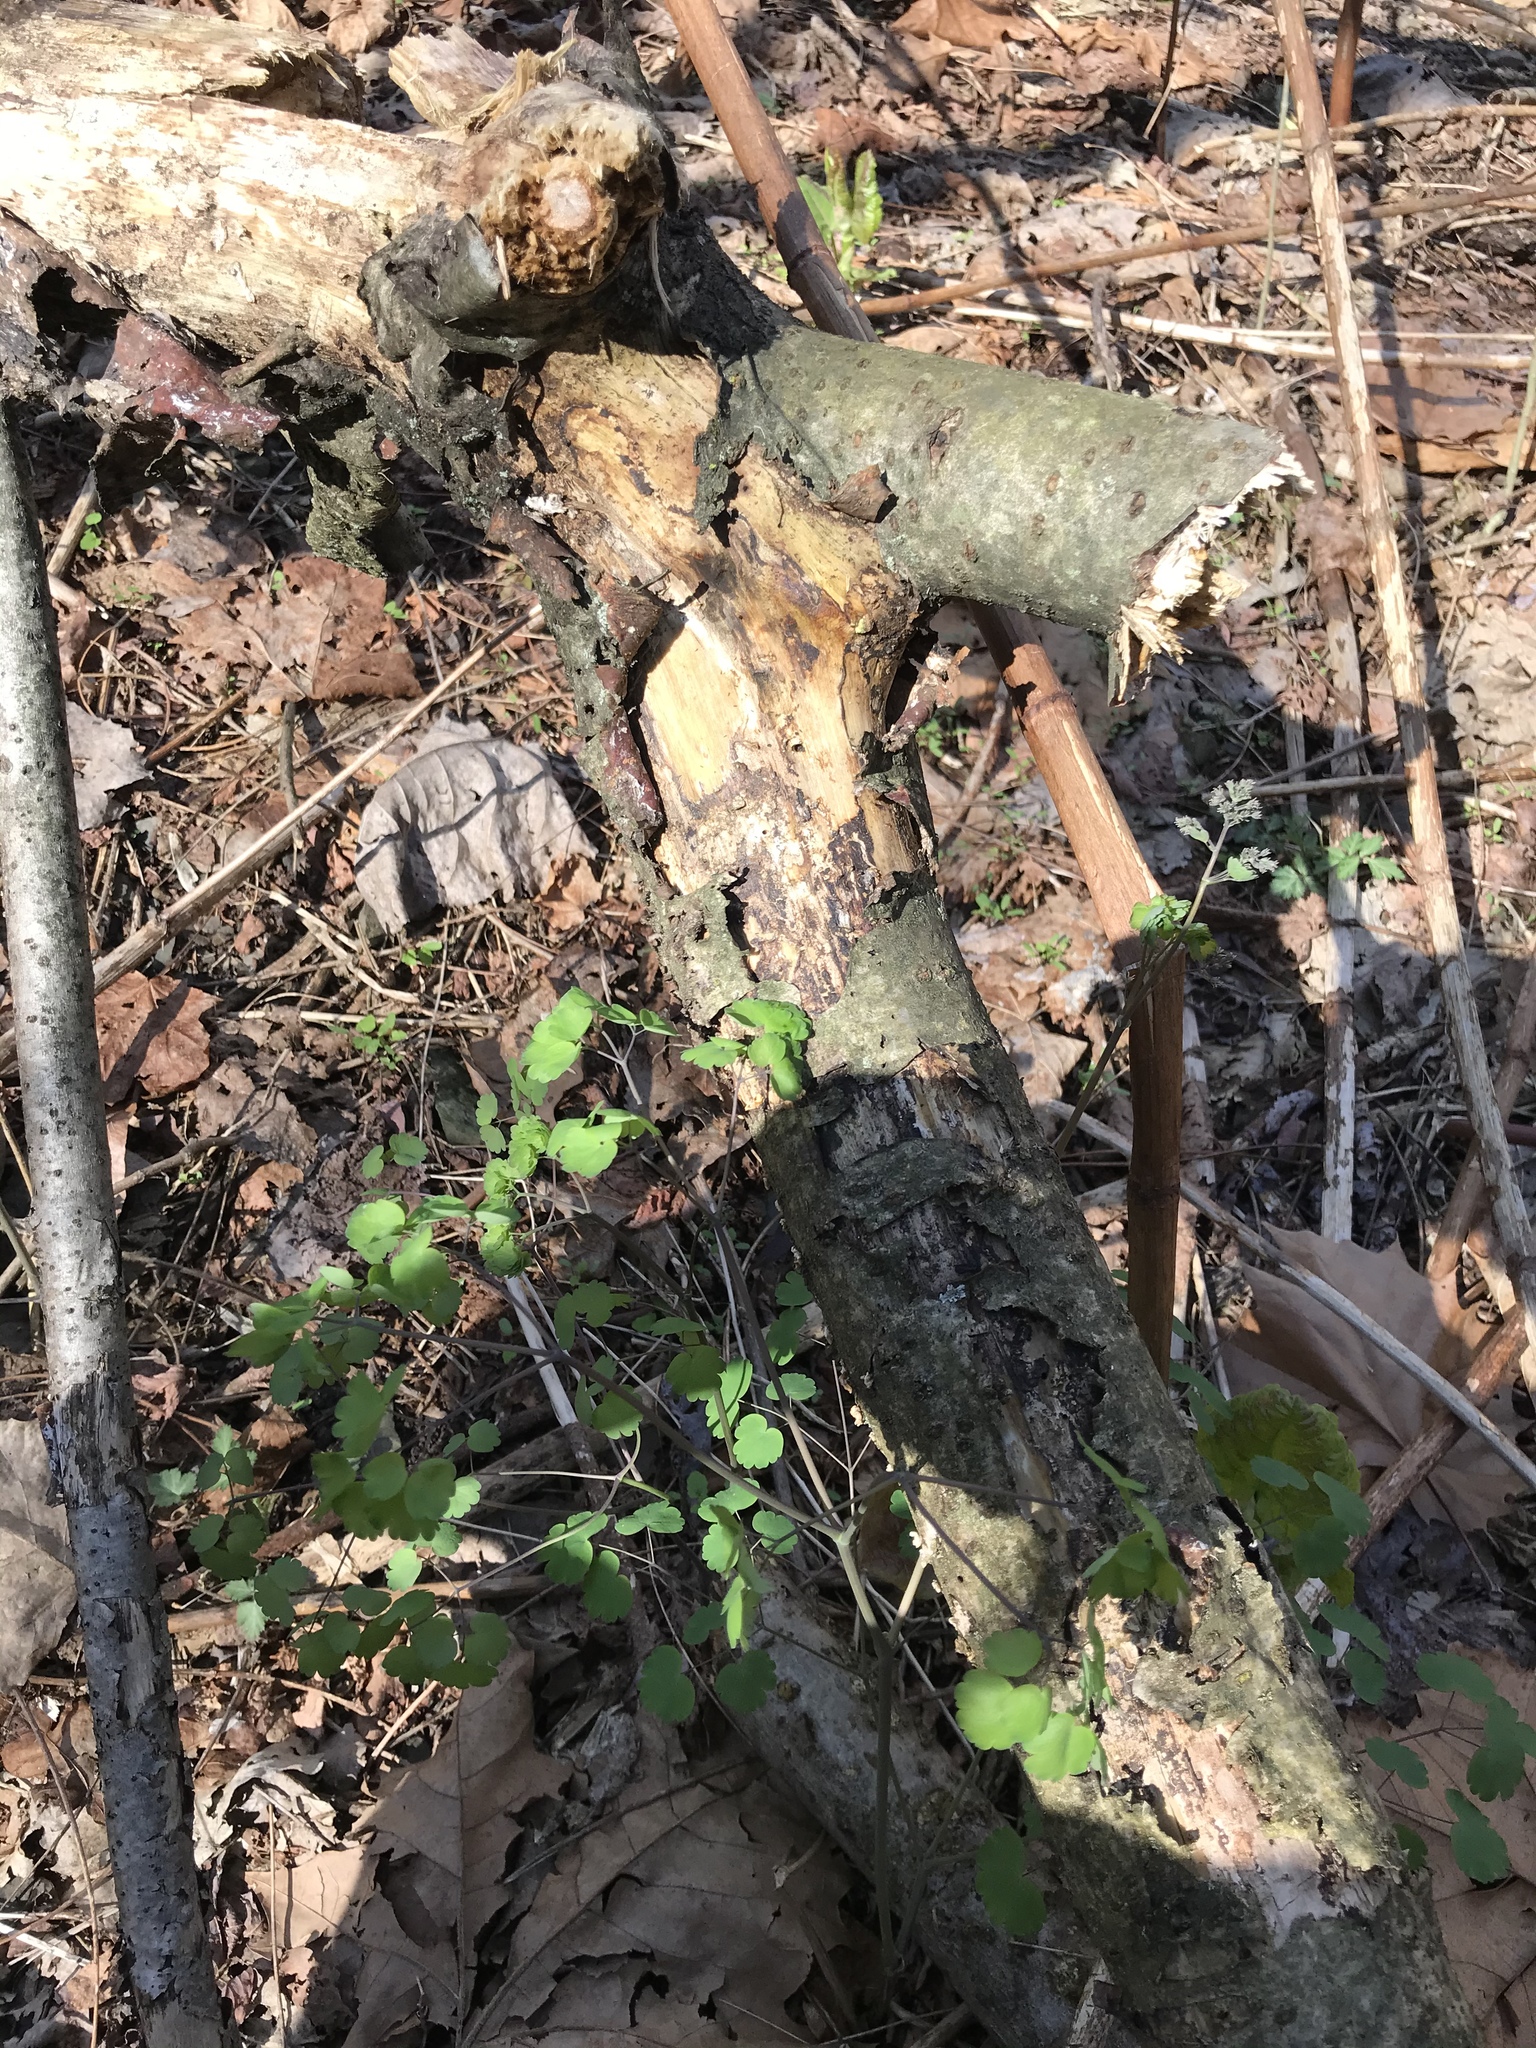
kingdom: Plantae
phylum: Tracheophyta
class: Magnoliopsida
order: Ranunculales
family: Ranunculaceae
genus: Thalictrum
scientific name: Thalictrum dioicum
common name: Early meadow-rue
